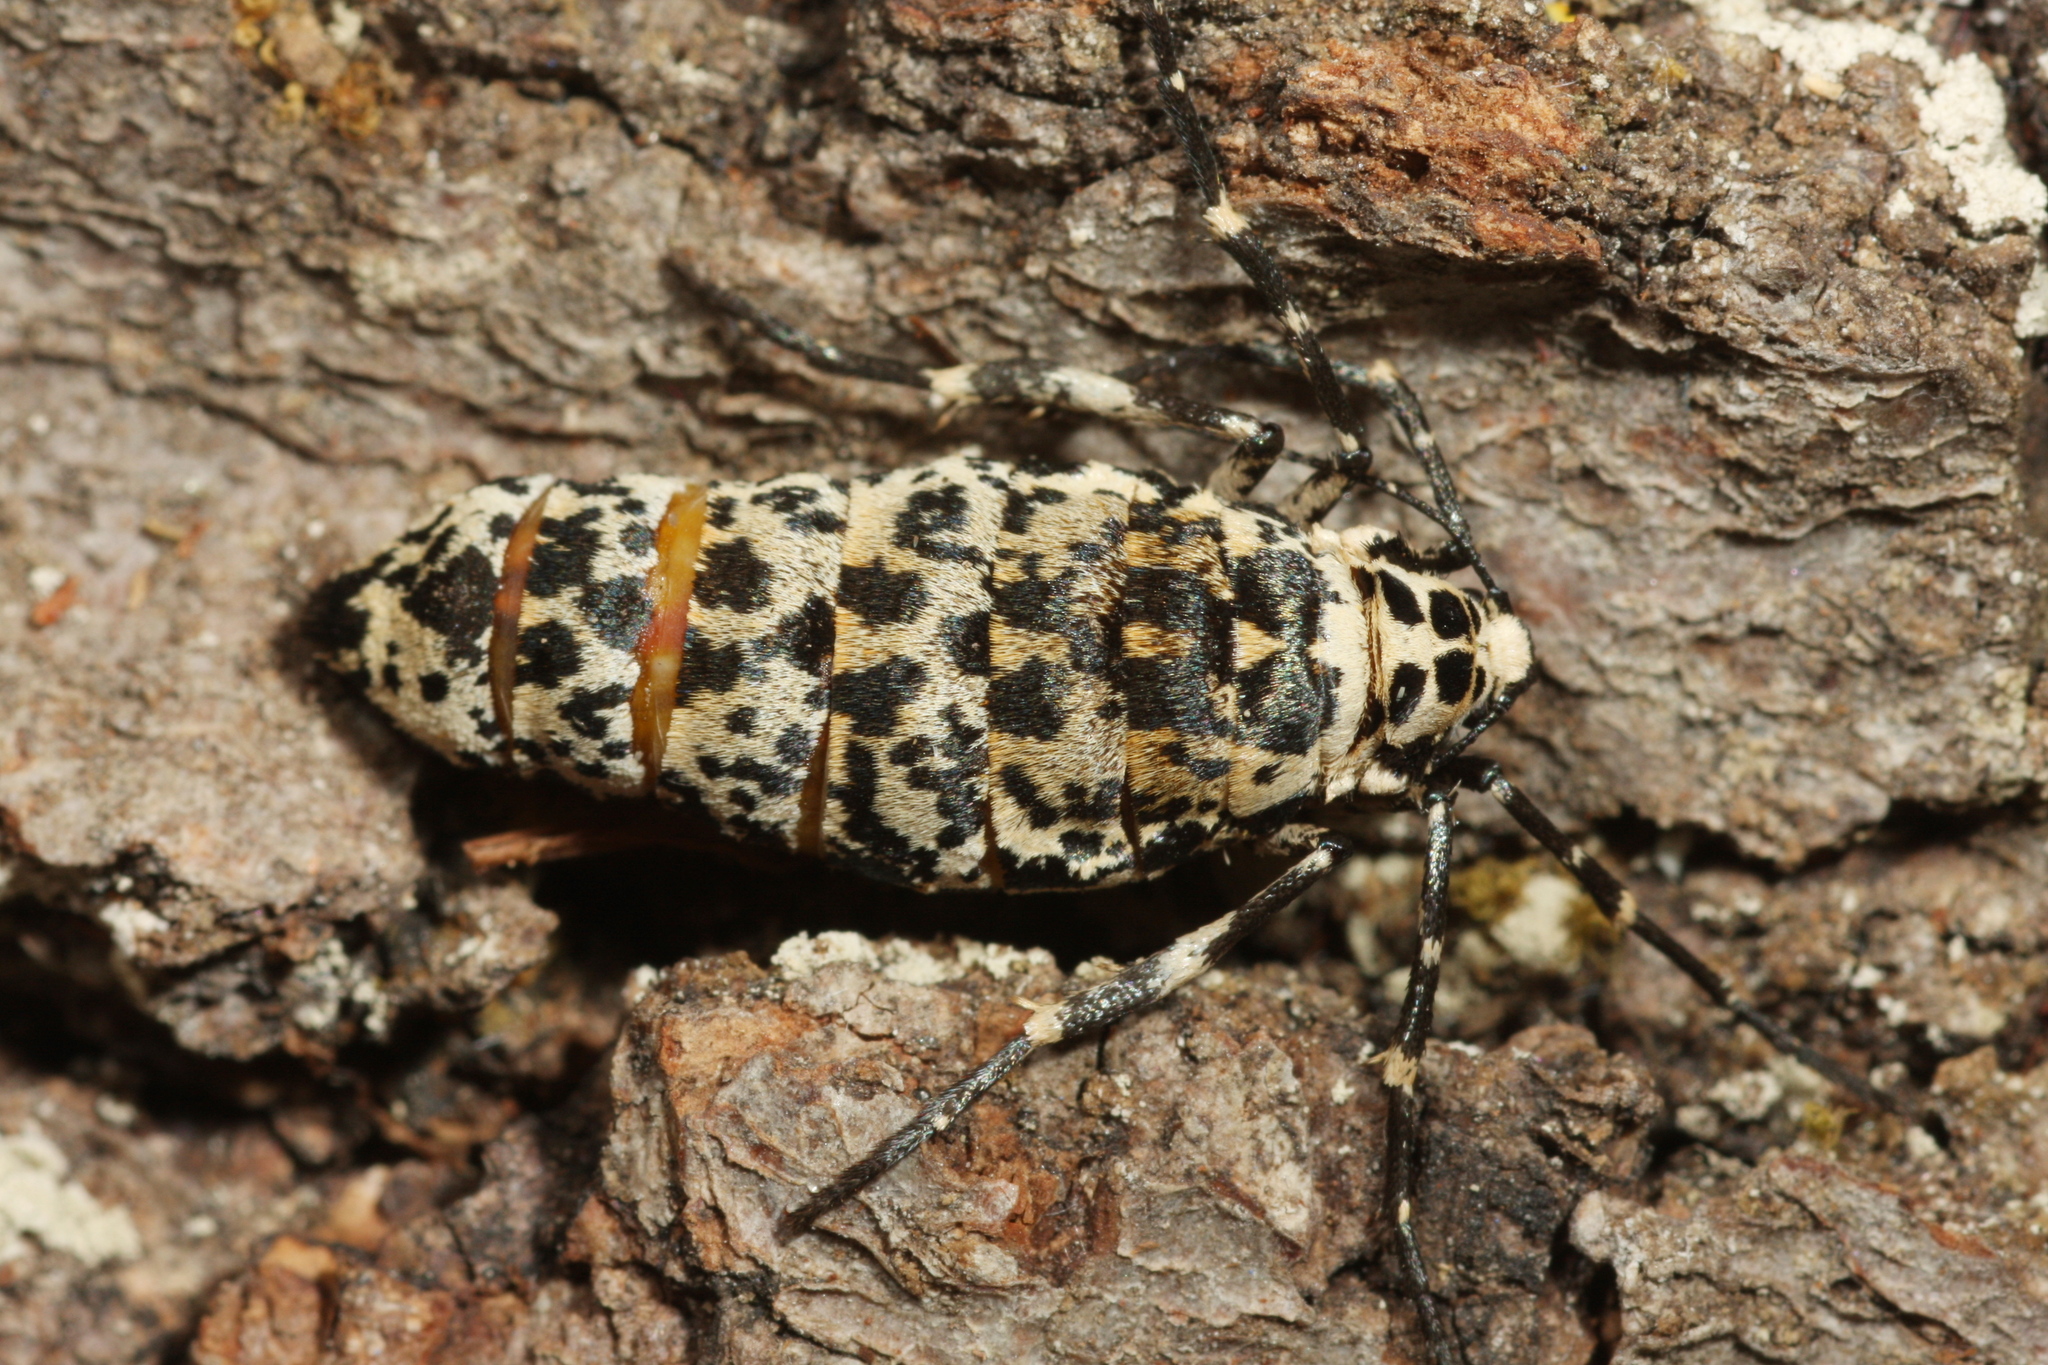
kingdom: Animalia
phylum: Arthropoda
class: Insecta
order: Lepidoptera
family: Geometridae
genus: Erannis
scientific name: Erannis defoliaria
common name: Mottled umber
